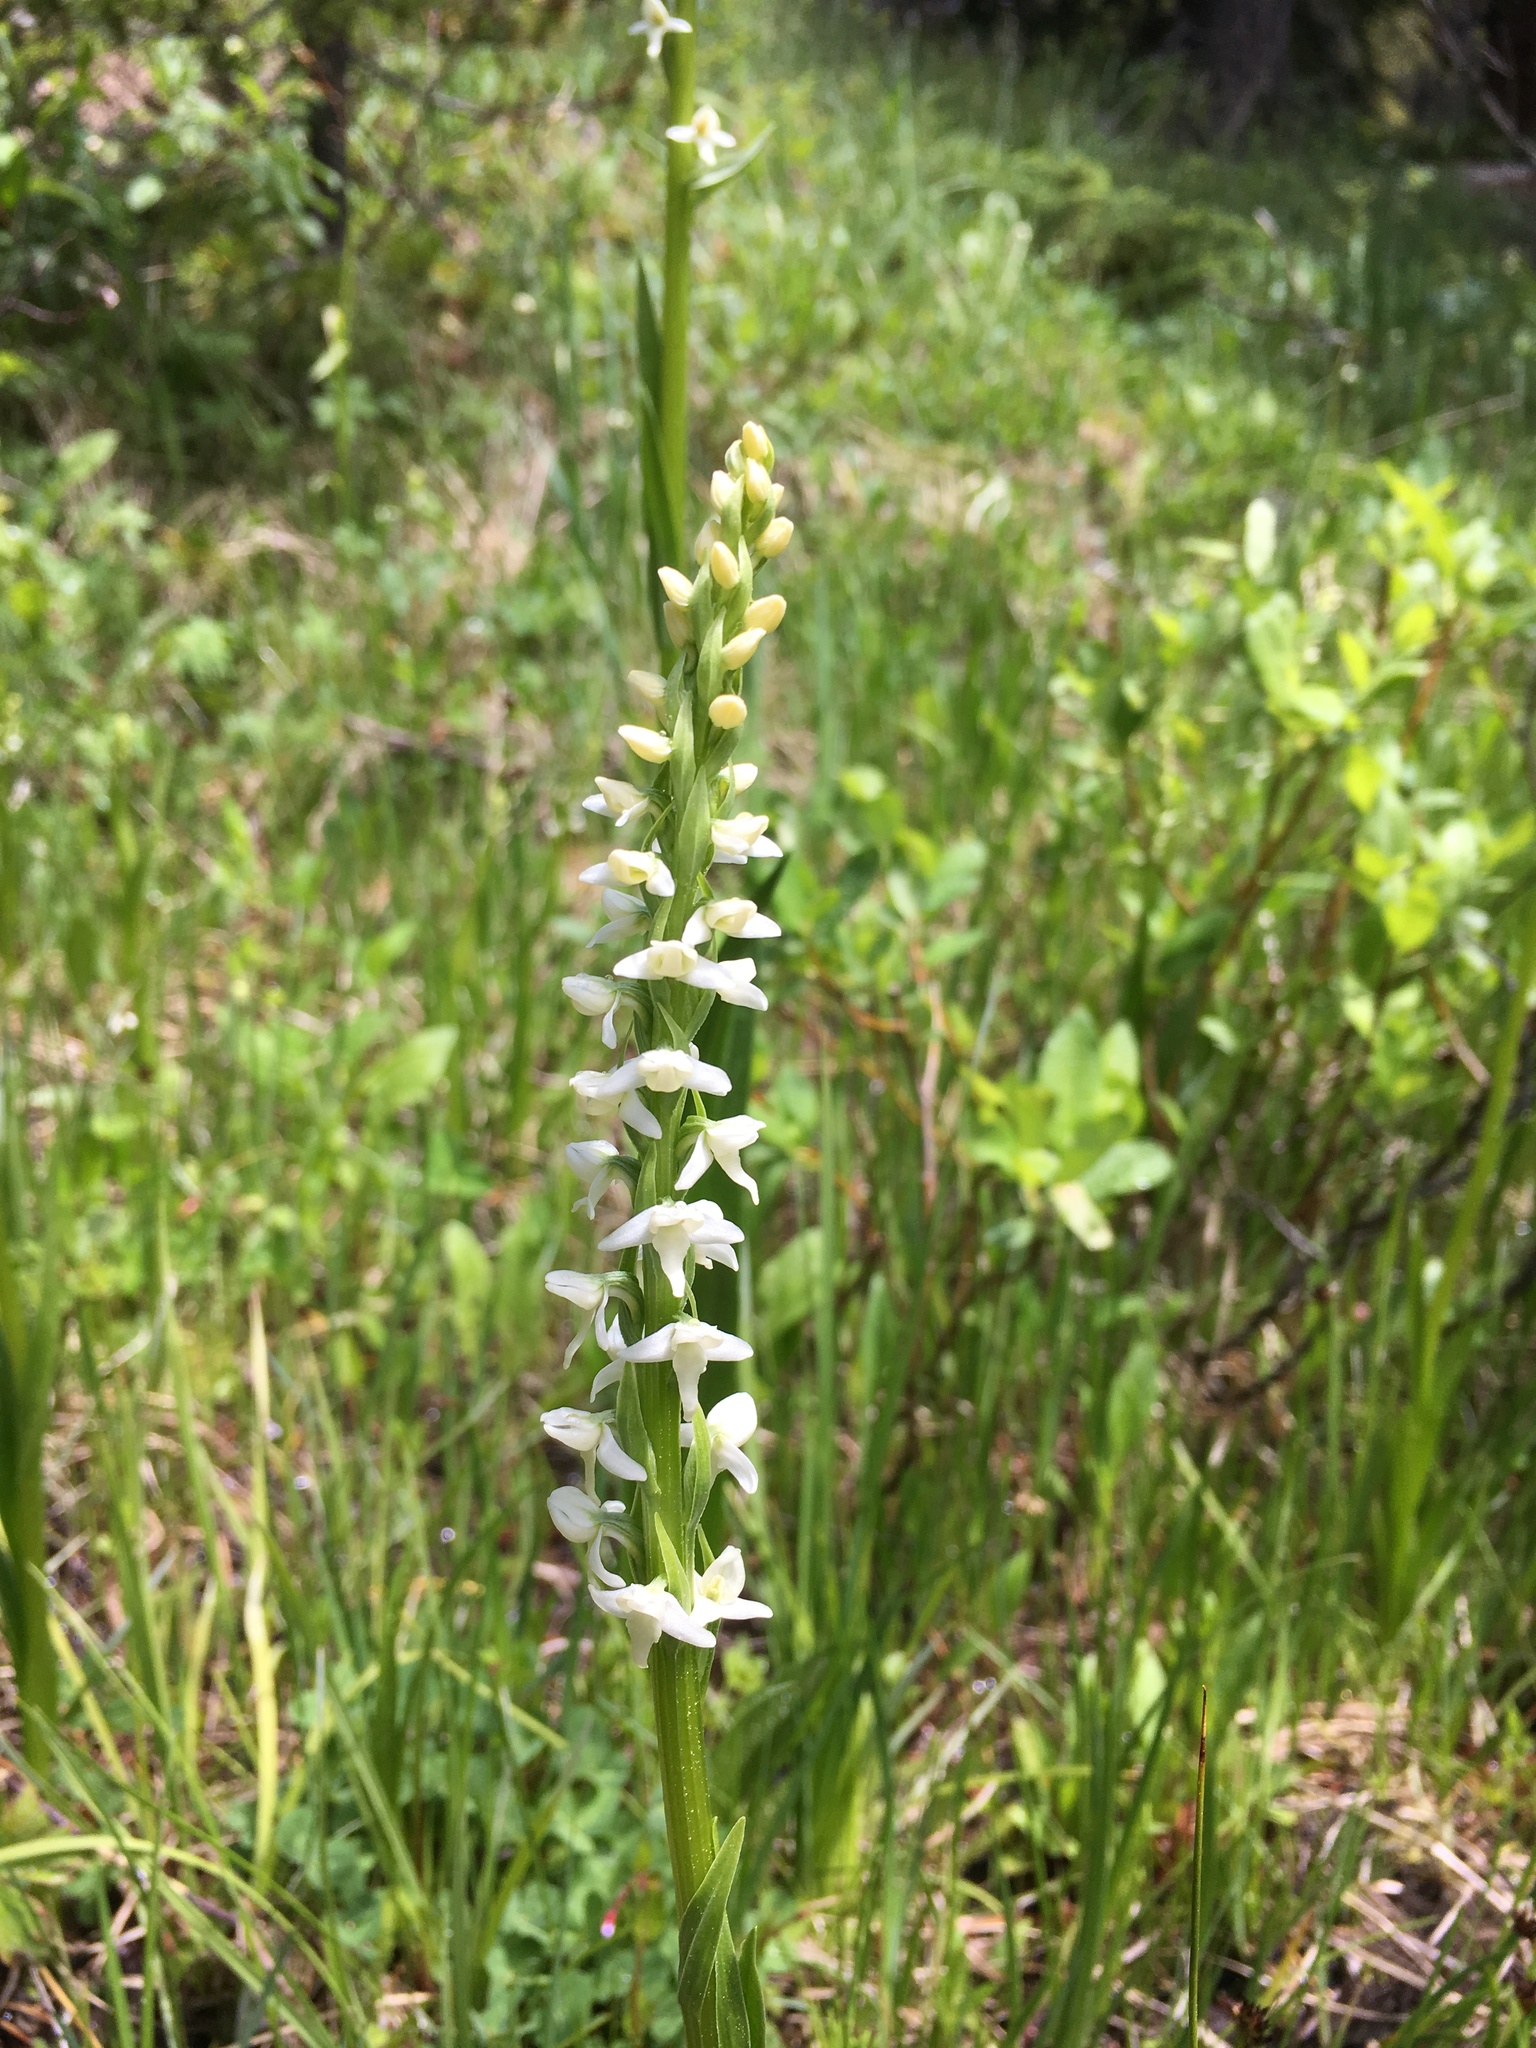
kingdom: Plantae
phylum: Tracheophyta
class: Liliopsida
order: Asparagales
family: Orchidaceae
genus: Platanthera
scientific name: Platanthera dilatata
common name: Bog candles
